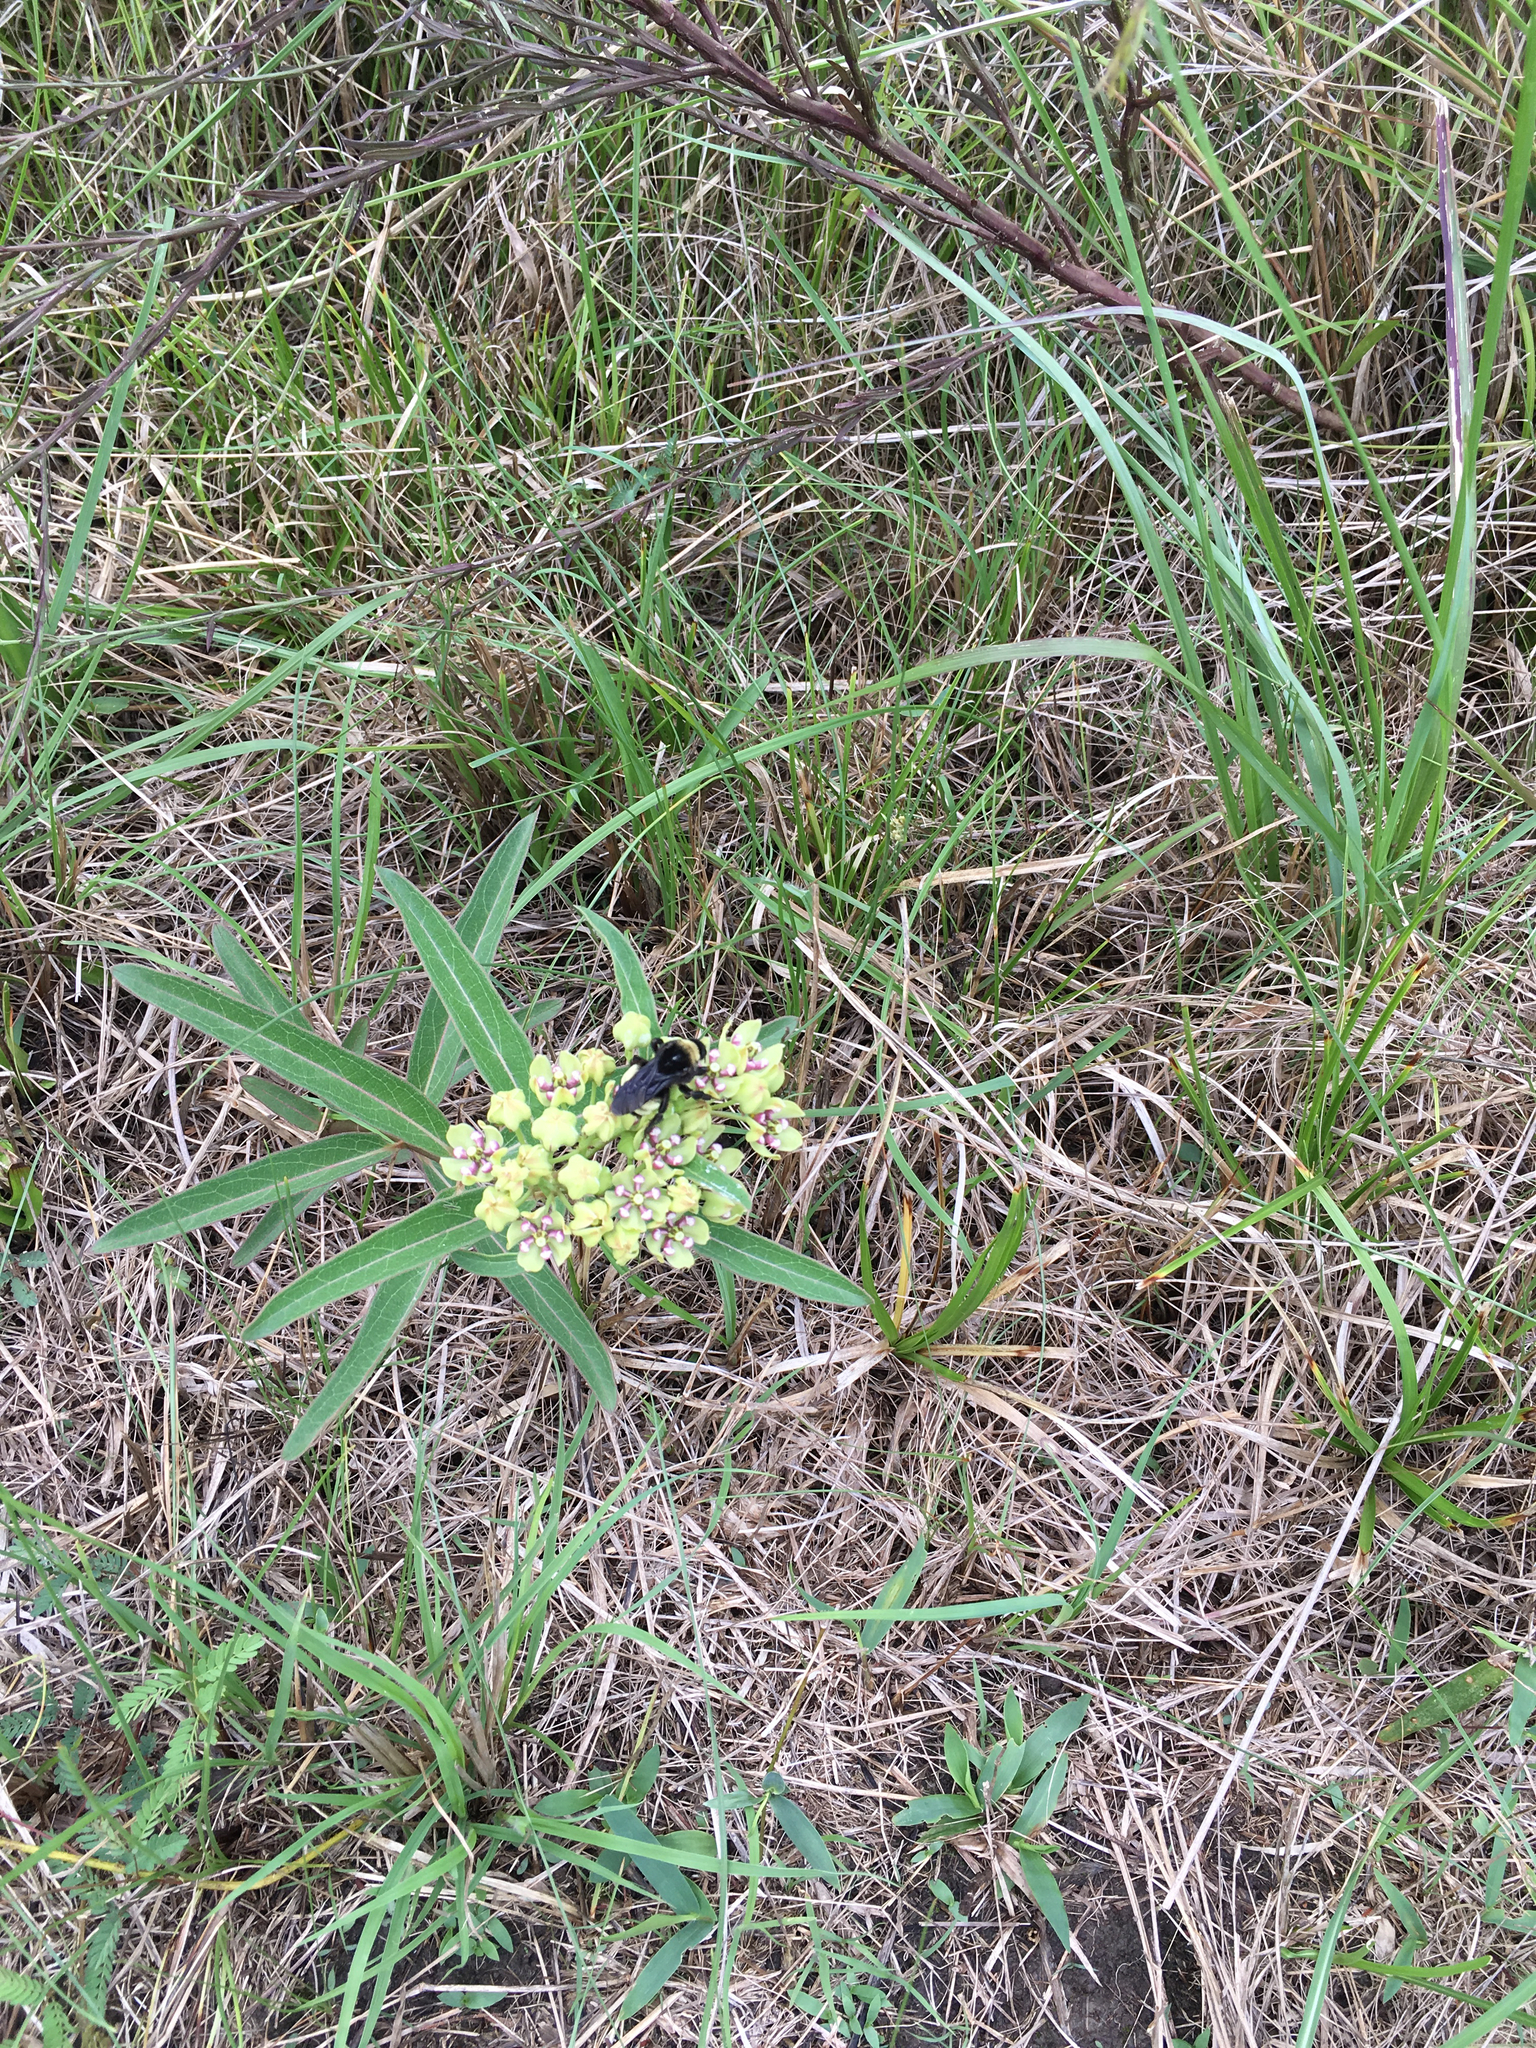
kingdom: Plantae
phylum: Tracheophyta
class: Magnoliopsida
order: Gentianales
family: Apocynaceae
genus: Asclepias
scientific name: Asclepias viridis
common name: Antelope-horns
